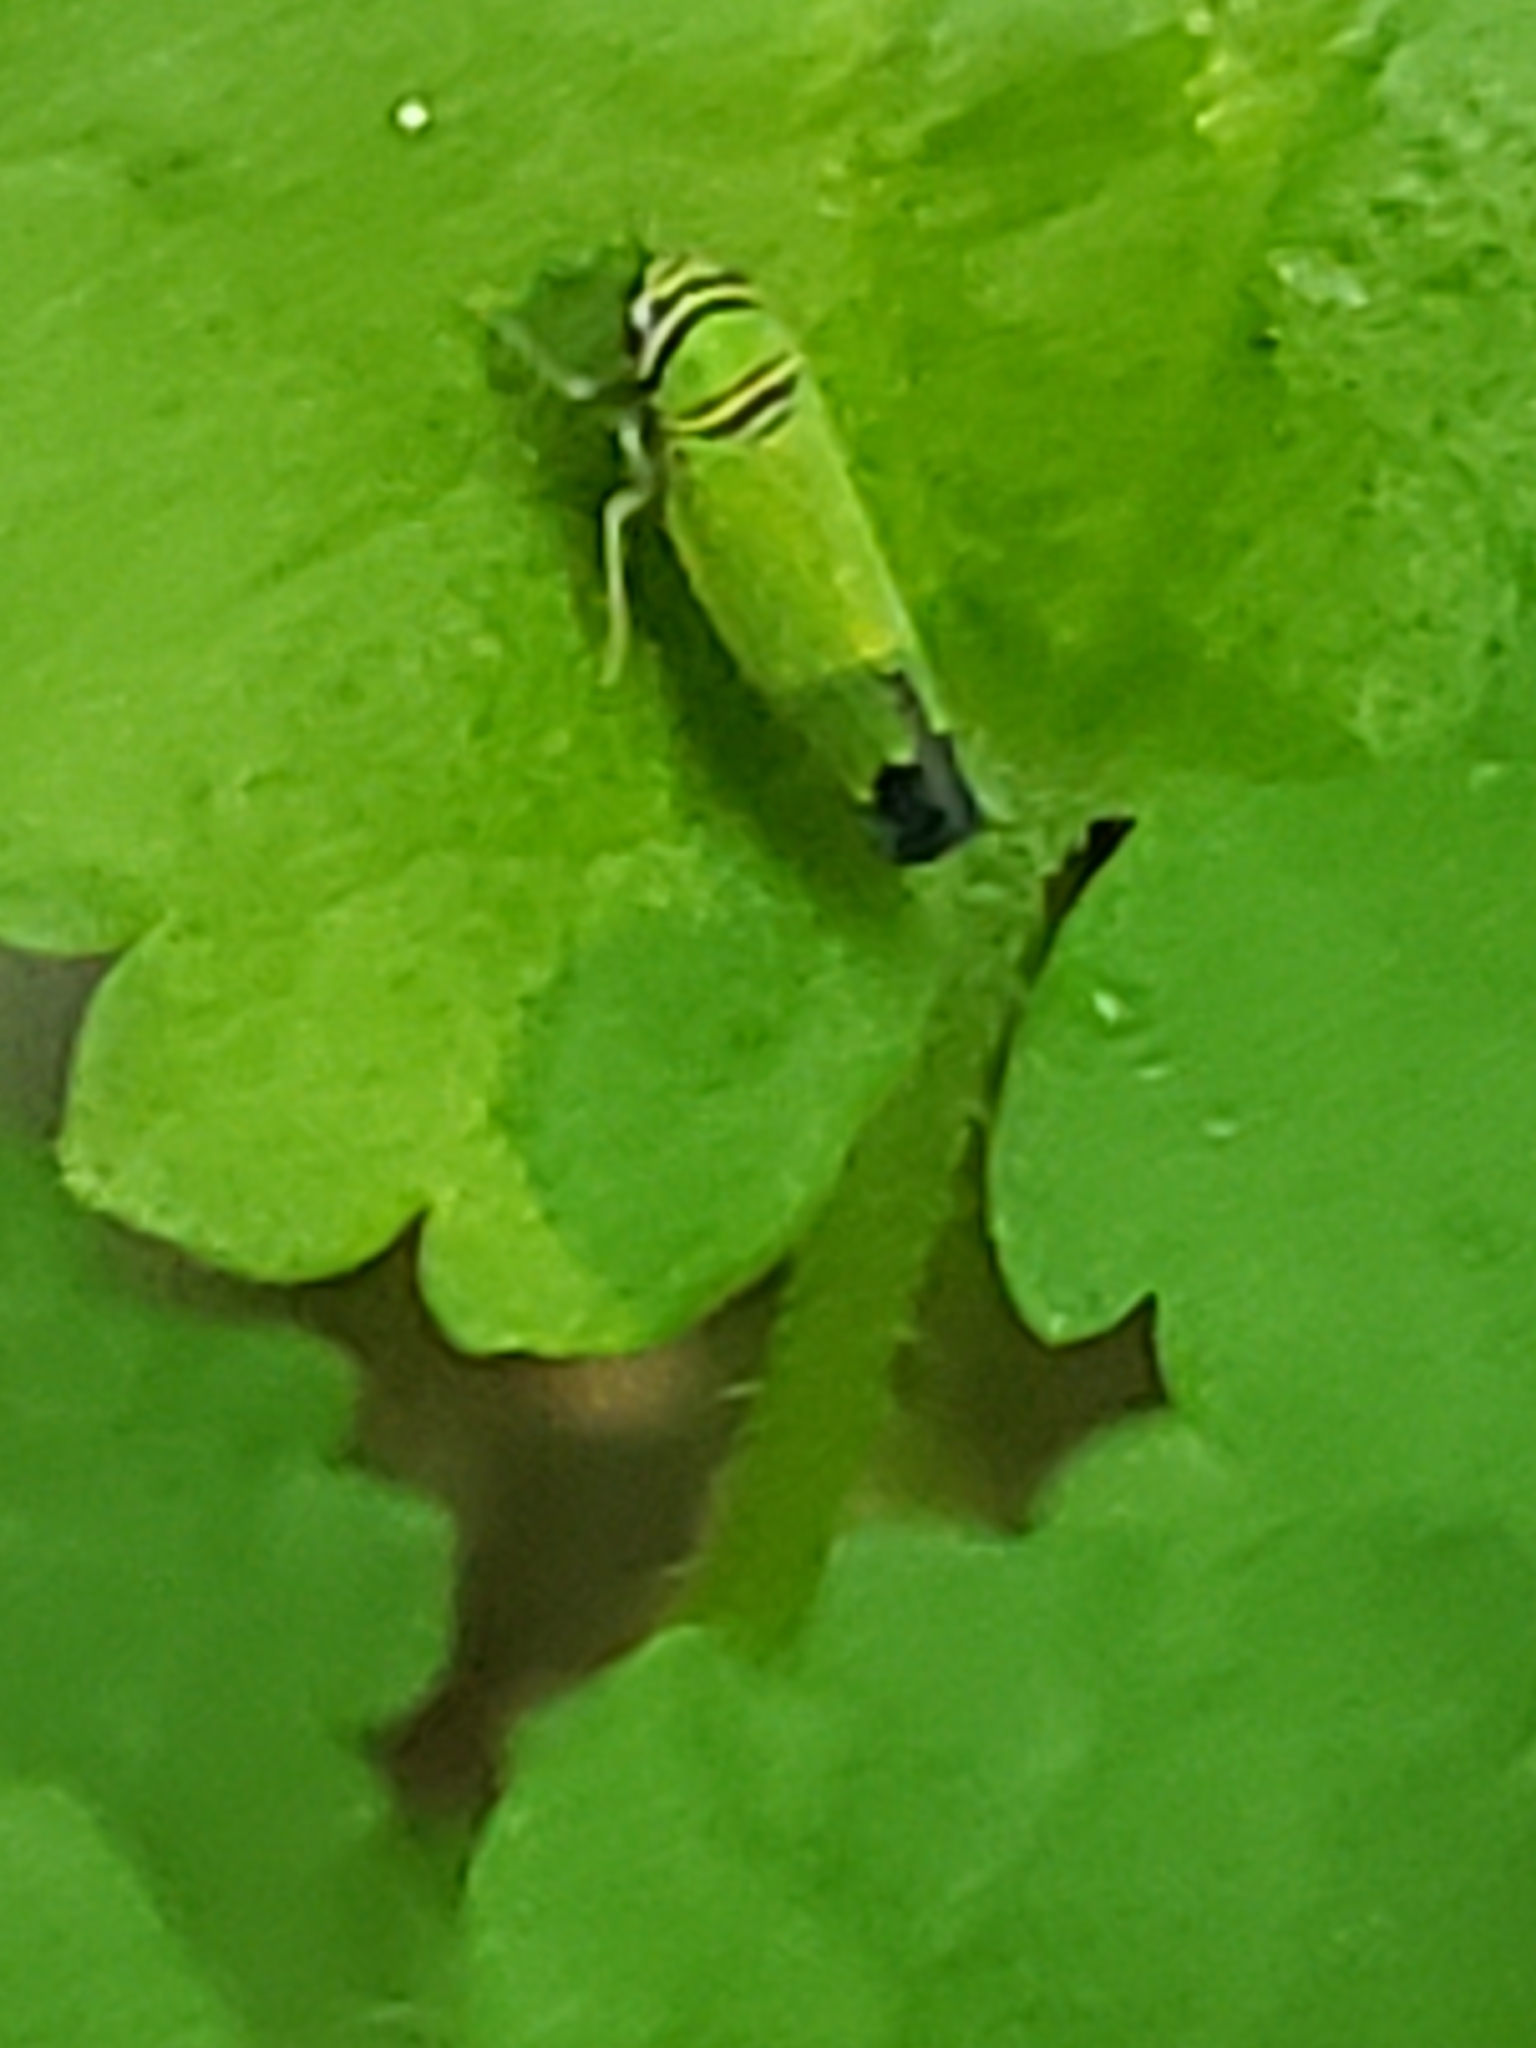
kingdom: Animalia
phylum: Arthropoda
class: Insecta
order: Hemiptera
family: Cicadellidae
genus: Tylozygus
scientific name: Tylozygus geometricus
